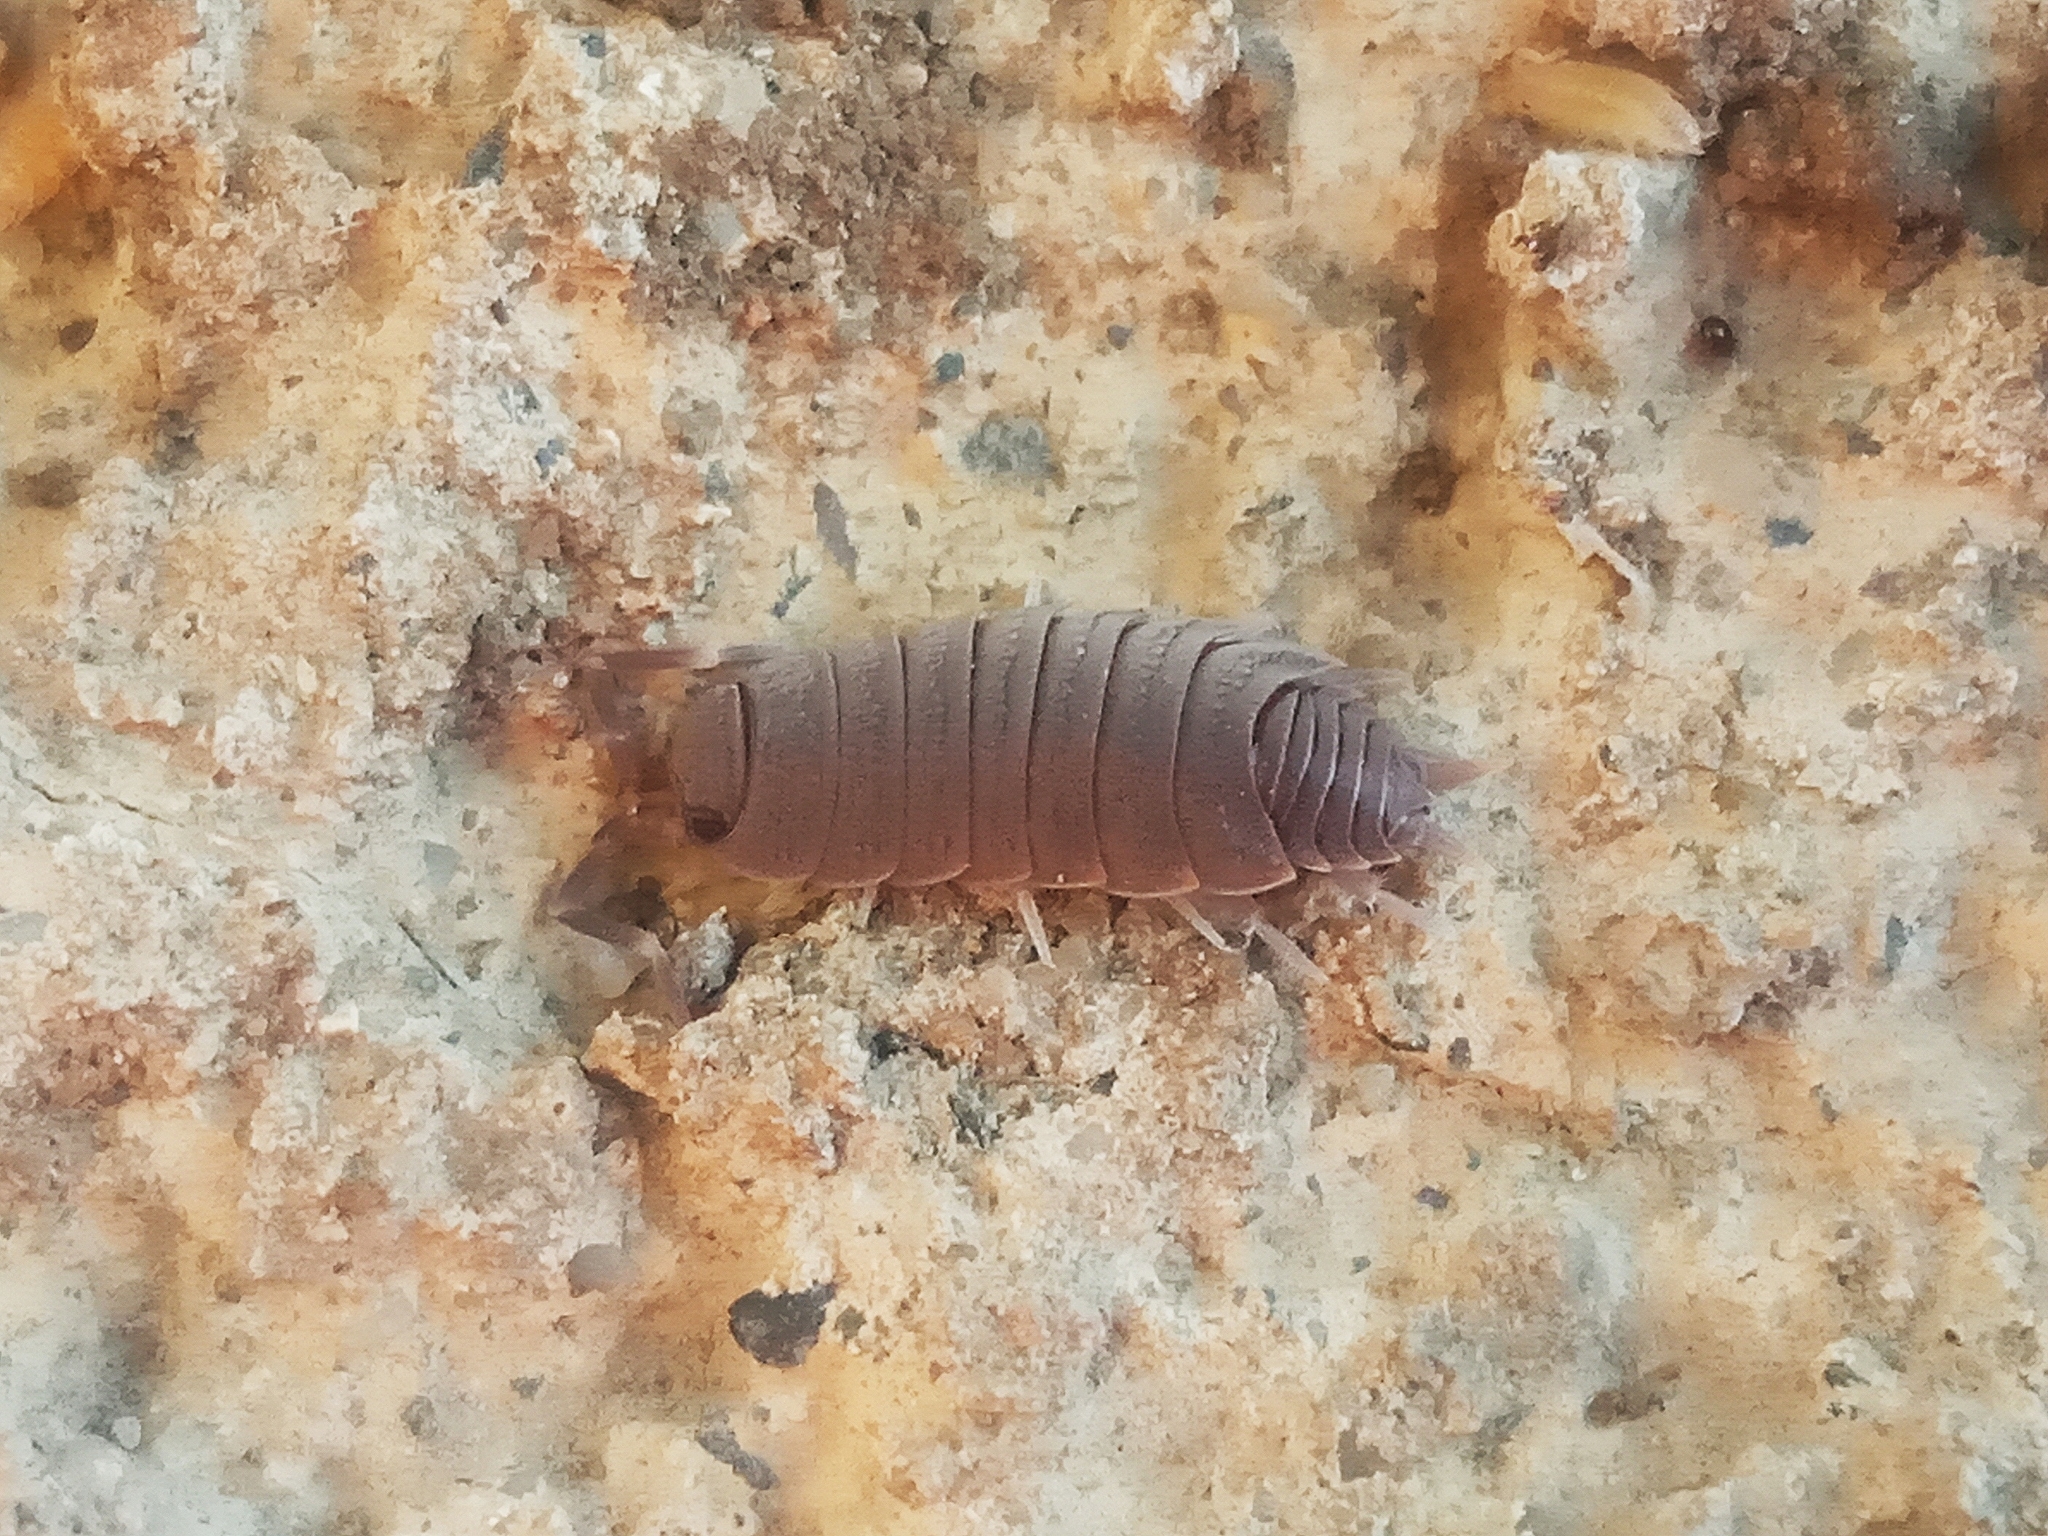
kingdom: Animalia
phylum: Arthropoda
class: Malacostraca
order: Isopoda
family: Porcellionidae
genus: Porcellionides
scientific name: Porcellionides
